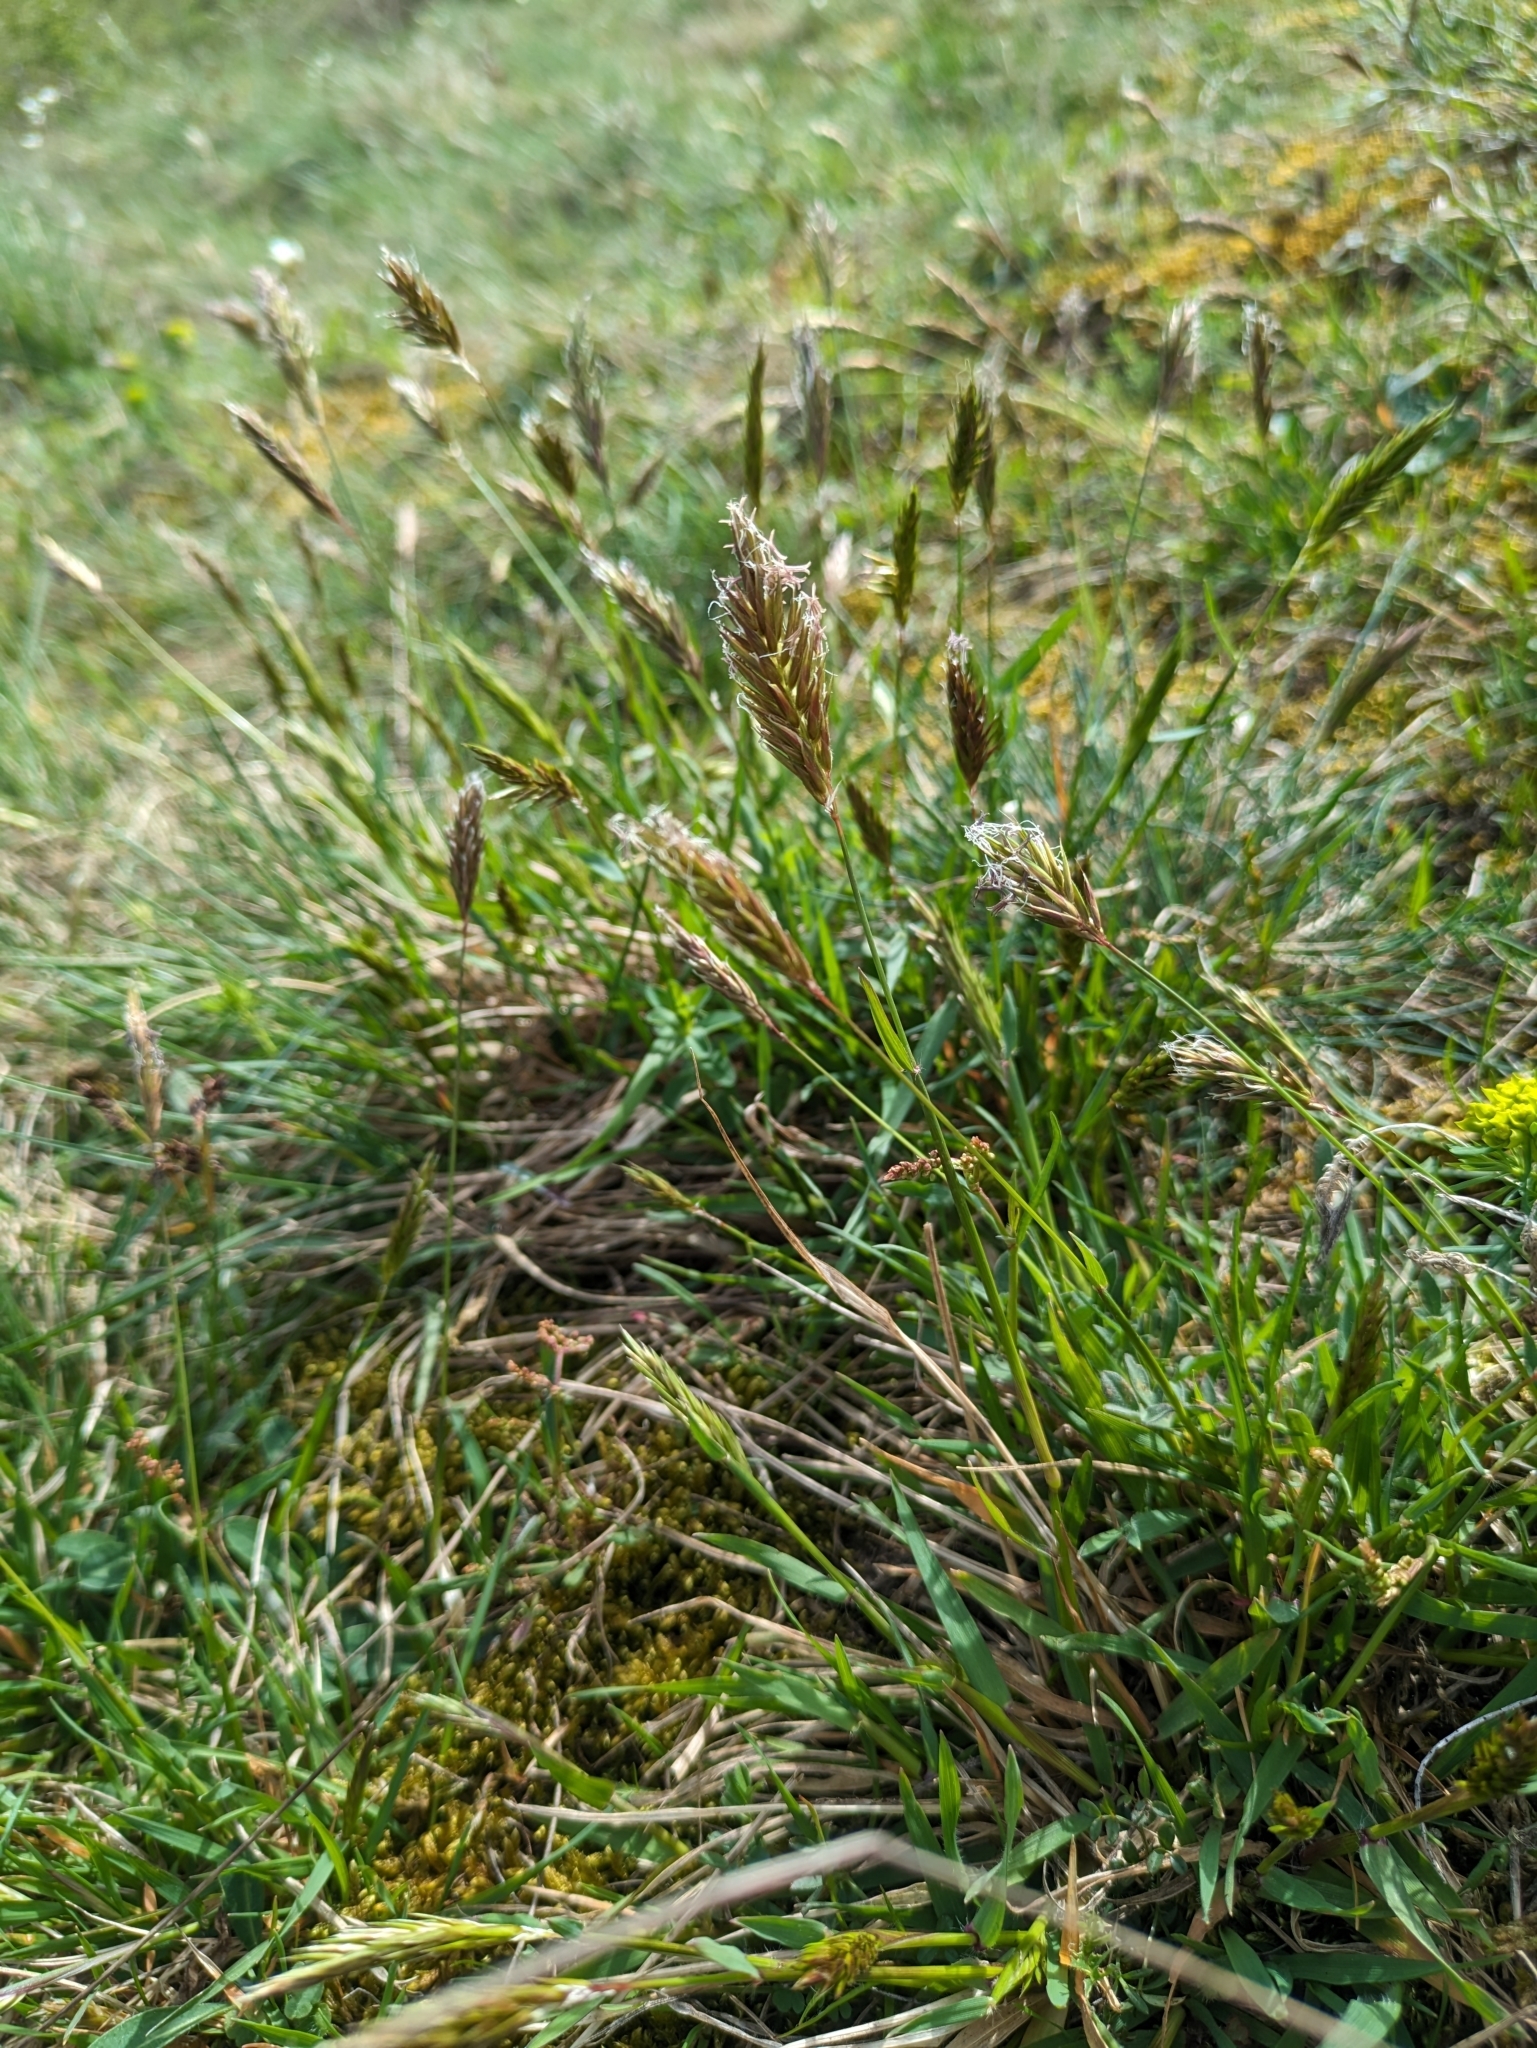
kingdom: Plantae
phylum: Tracheophyta
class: Liliopsida
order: Poales
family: Poaceae
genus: Anthoxanthum
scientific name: Anthoxanthum odoratum
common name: Sweet vernalgrass
